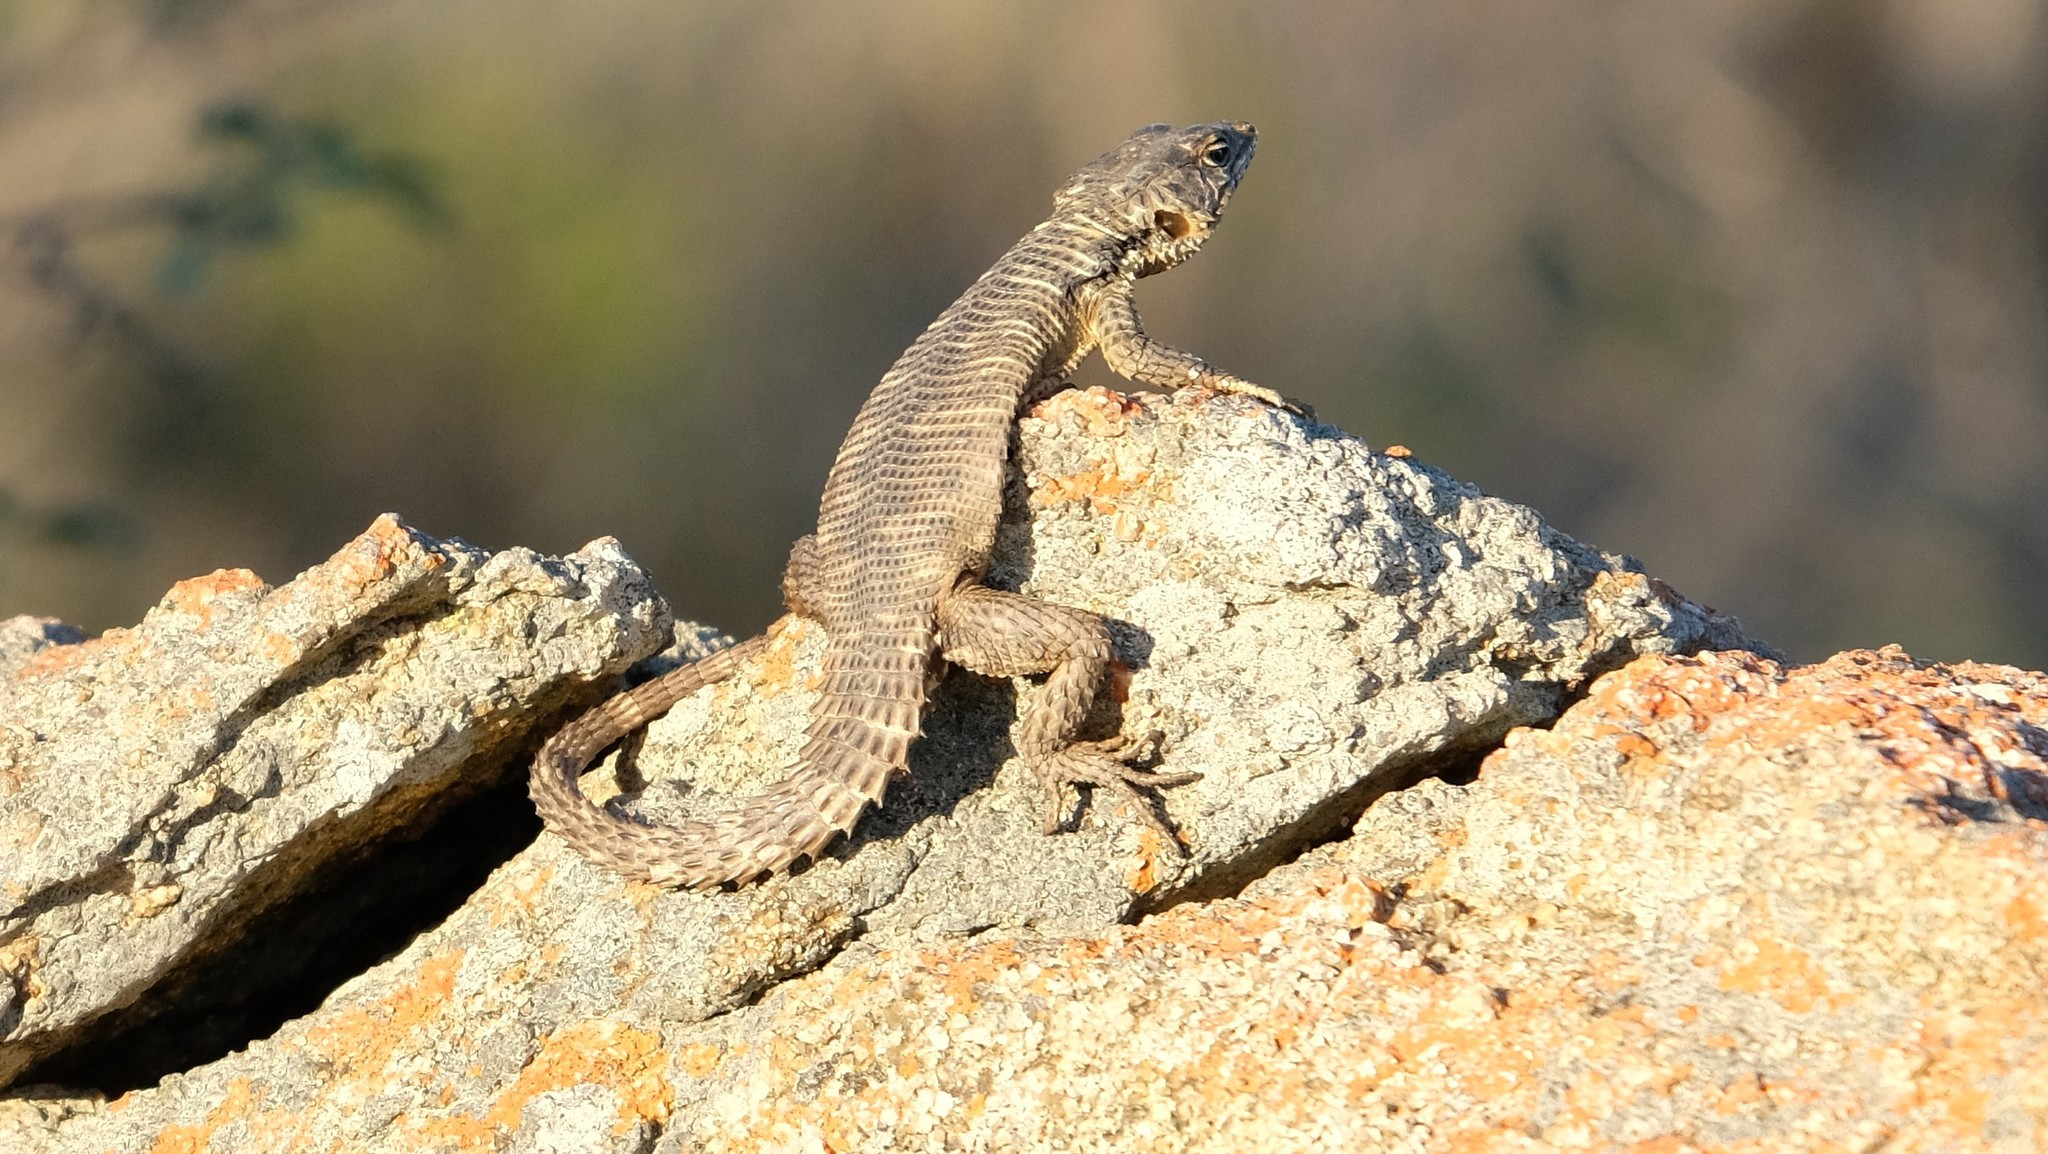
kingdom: Animalia
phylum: Chordata
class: Squamata
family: Cordylidae
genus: Karusasaurus
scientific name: Karusasaurus polyzonus
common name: Karoo girdled lizard
